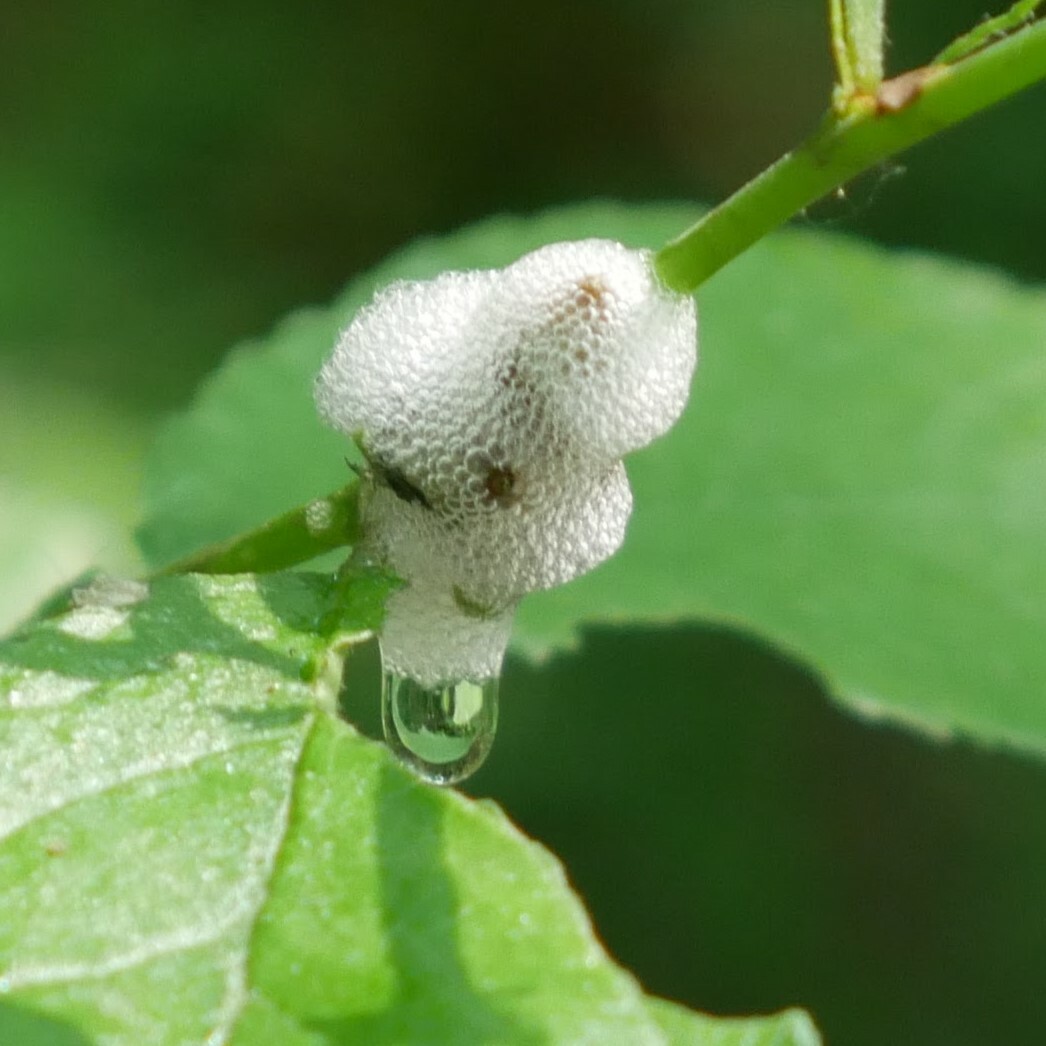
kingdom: Animalia
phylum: Arthropoda
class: Insecta
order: Hemiptera
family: Aphrophoridae
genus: Philaenus
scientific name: Philaenus spumarius
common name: Meadow spittlebug
